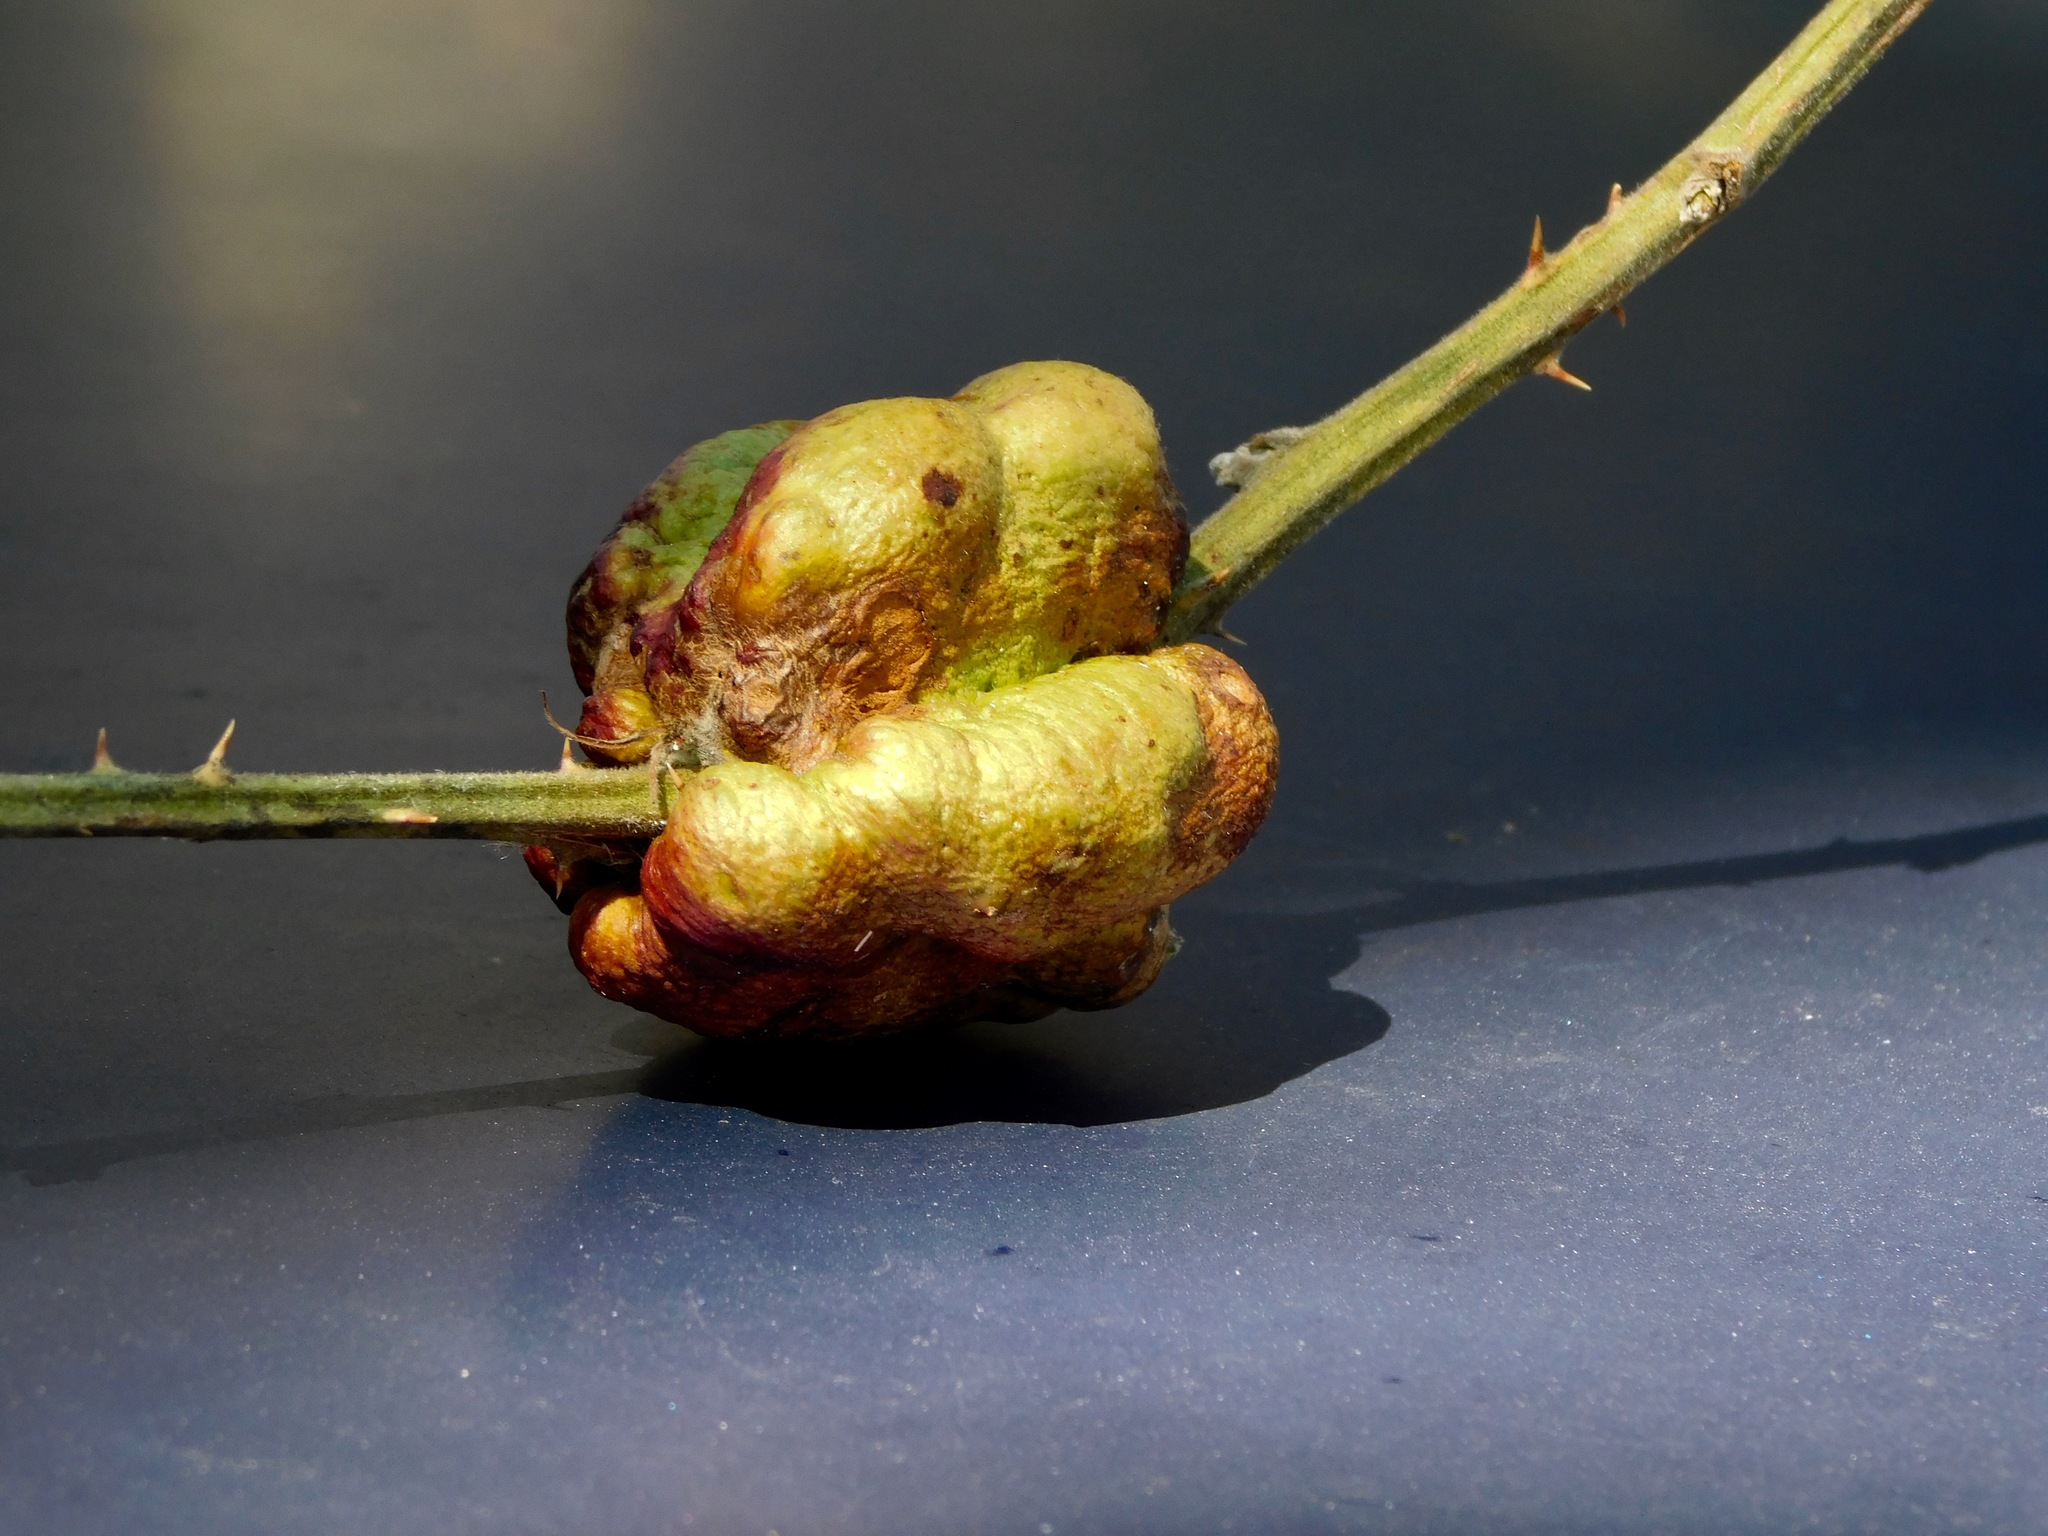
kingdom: Animalia
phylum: Arthropoda
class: Insecta
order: Hymenoptera
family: Cynipidae
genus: Diastrophus
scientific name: Diastrophus
